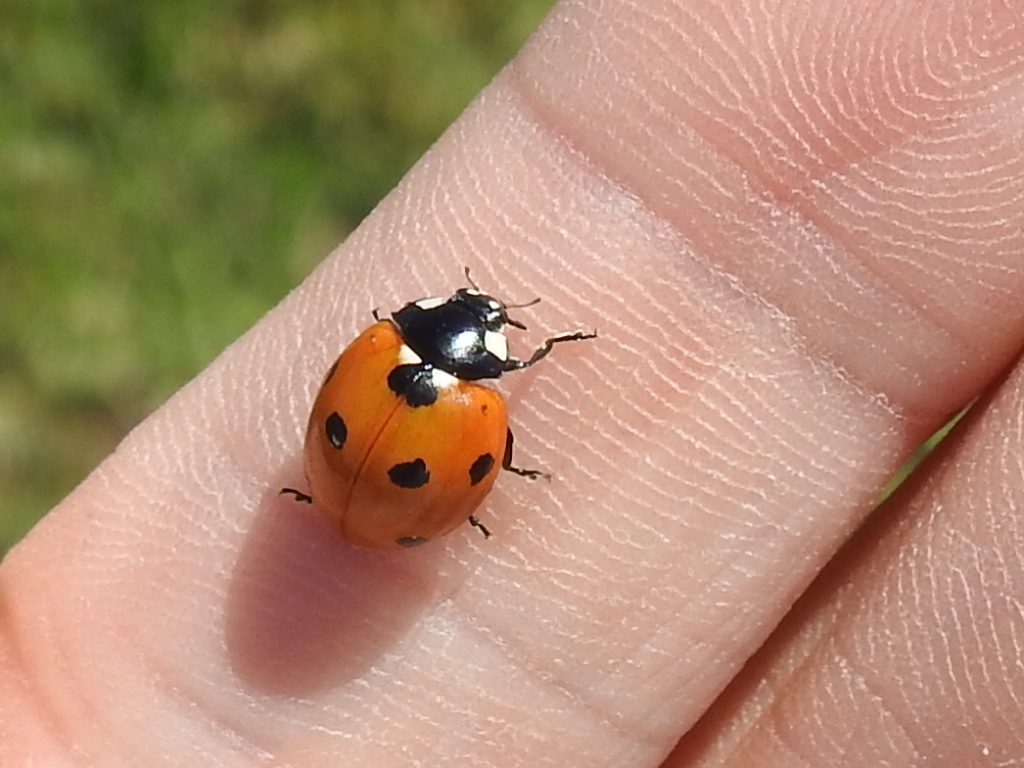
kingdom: Animalia
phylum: Arthropoda
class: Insecta
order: Coleoptera
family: Coccinellidae
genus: Coccinella
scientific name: Coccinella septempunctata
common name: Sevenspotted lady beetle
